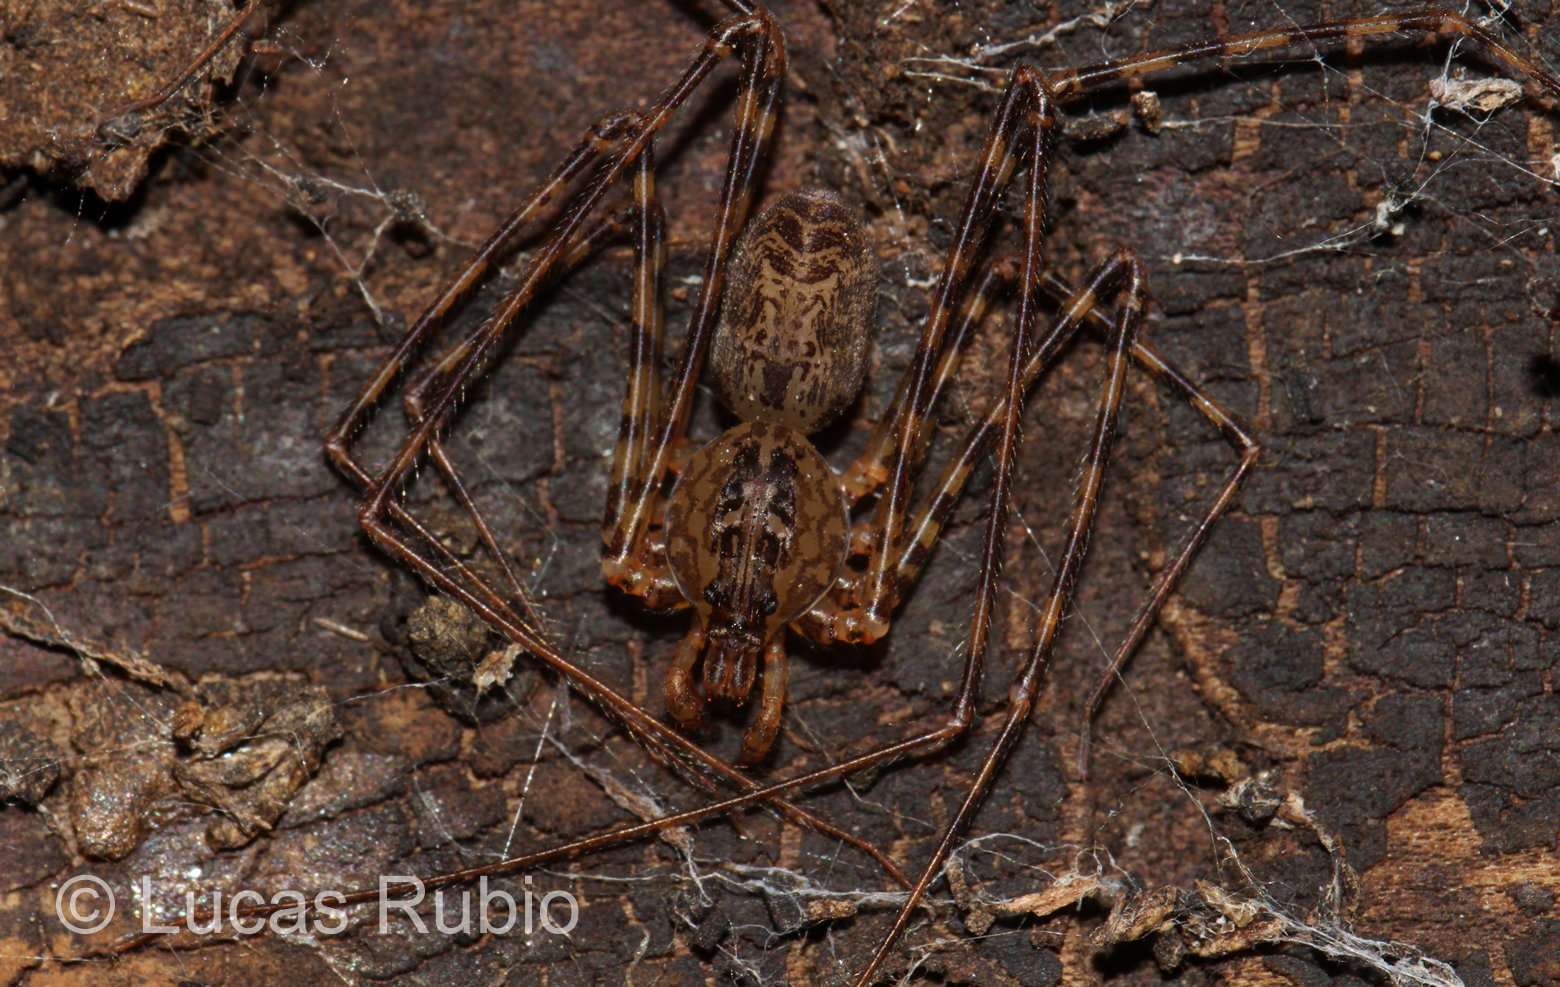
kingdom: Animalia
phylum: Arthropoda
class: Arachnida
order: Araneae
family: Scytodidae
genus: Scytodes
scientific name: Scytodes globula
